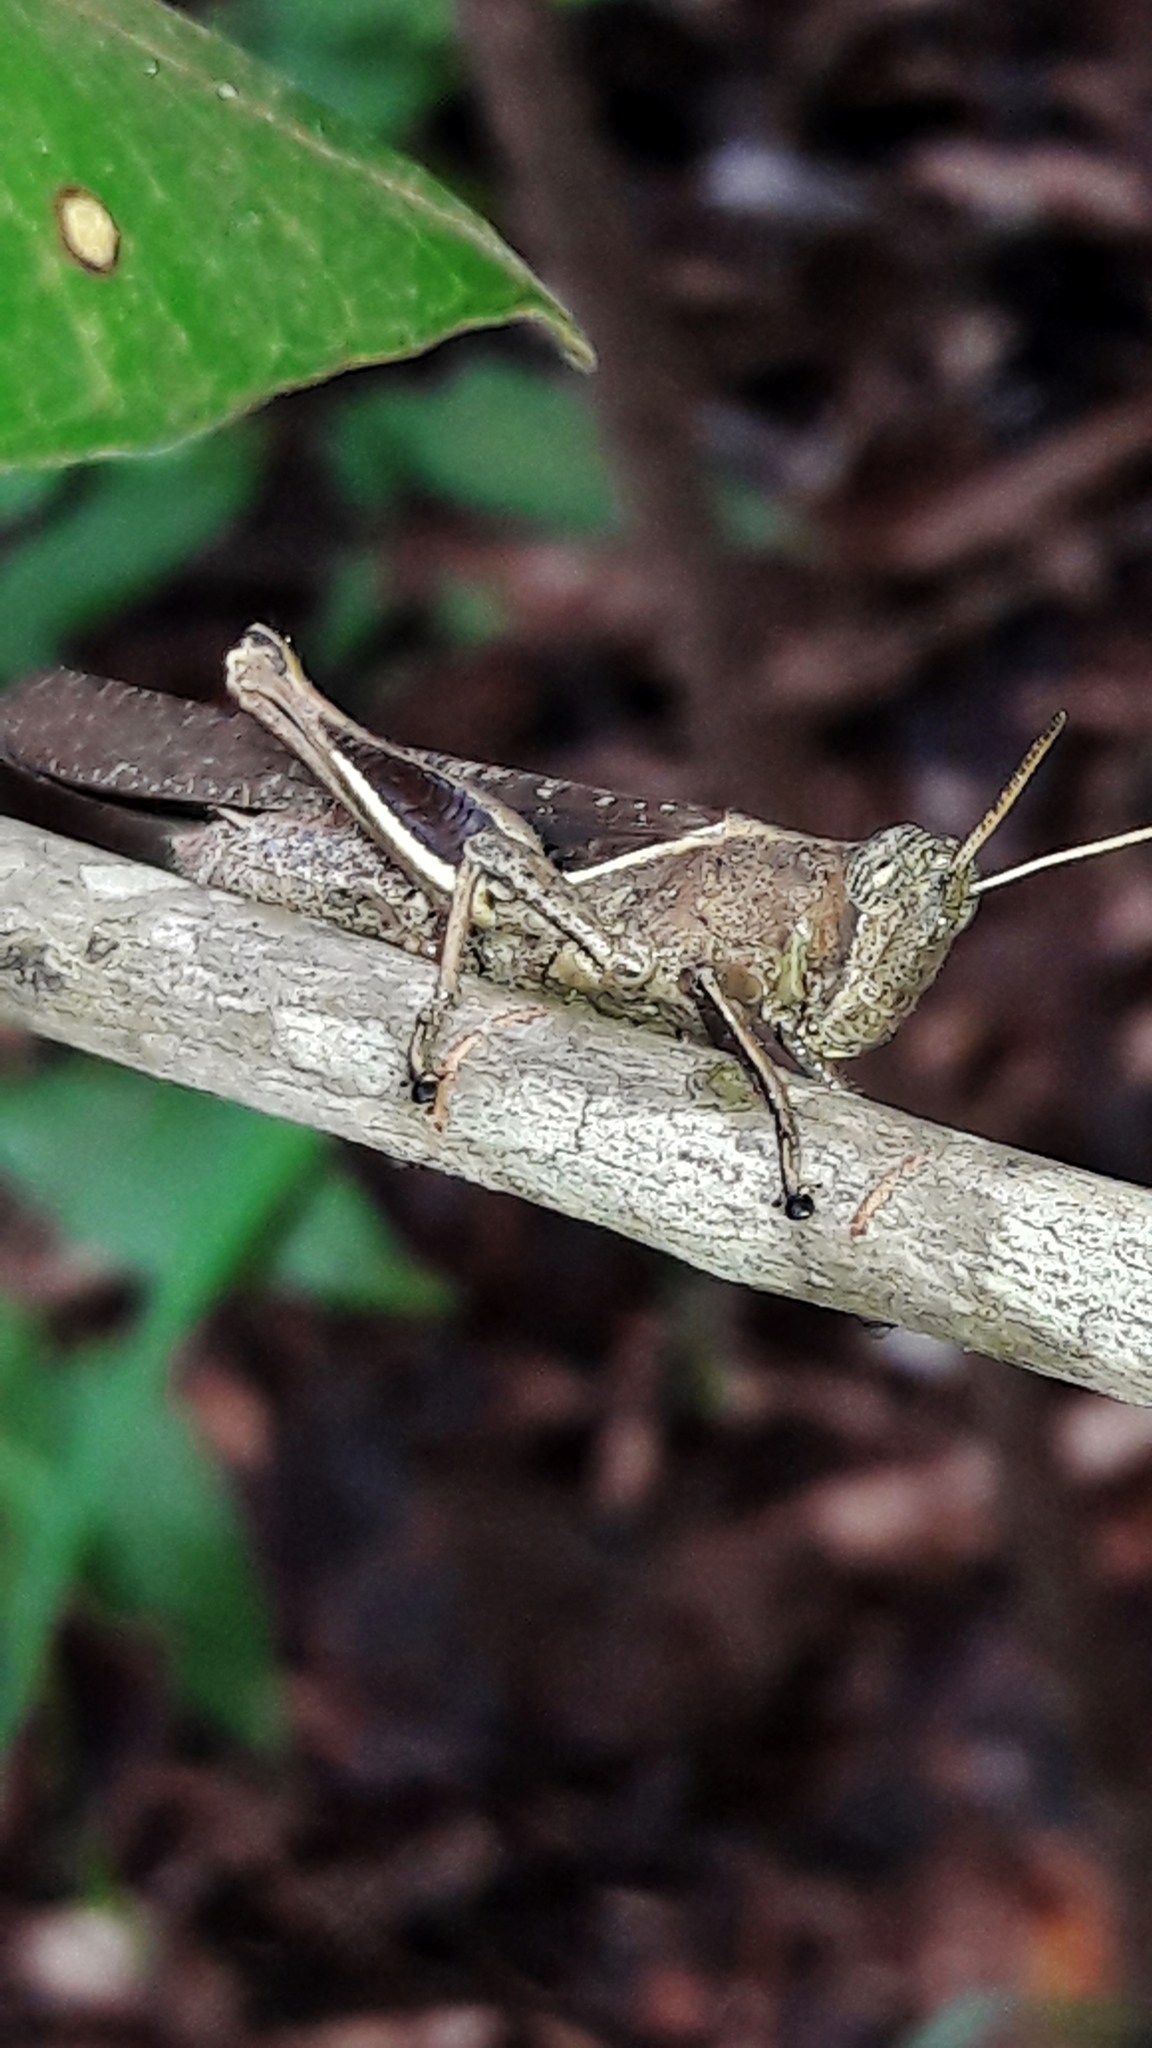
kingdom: Animalia
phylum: Arthropoda
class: Insecta
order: Orthoptera
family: Acrididae
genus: Abracris
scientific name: Abracris flavolineata
